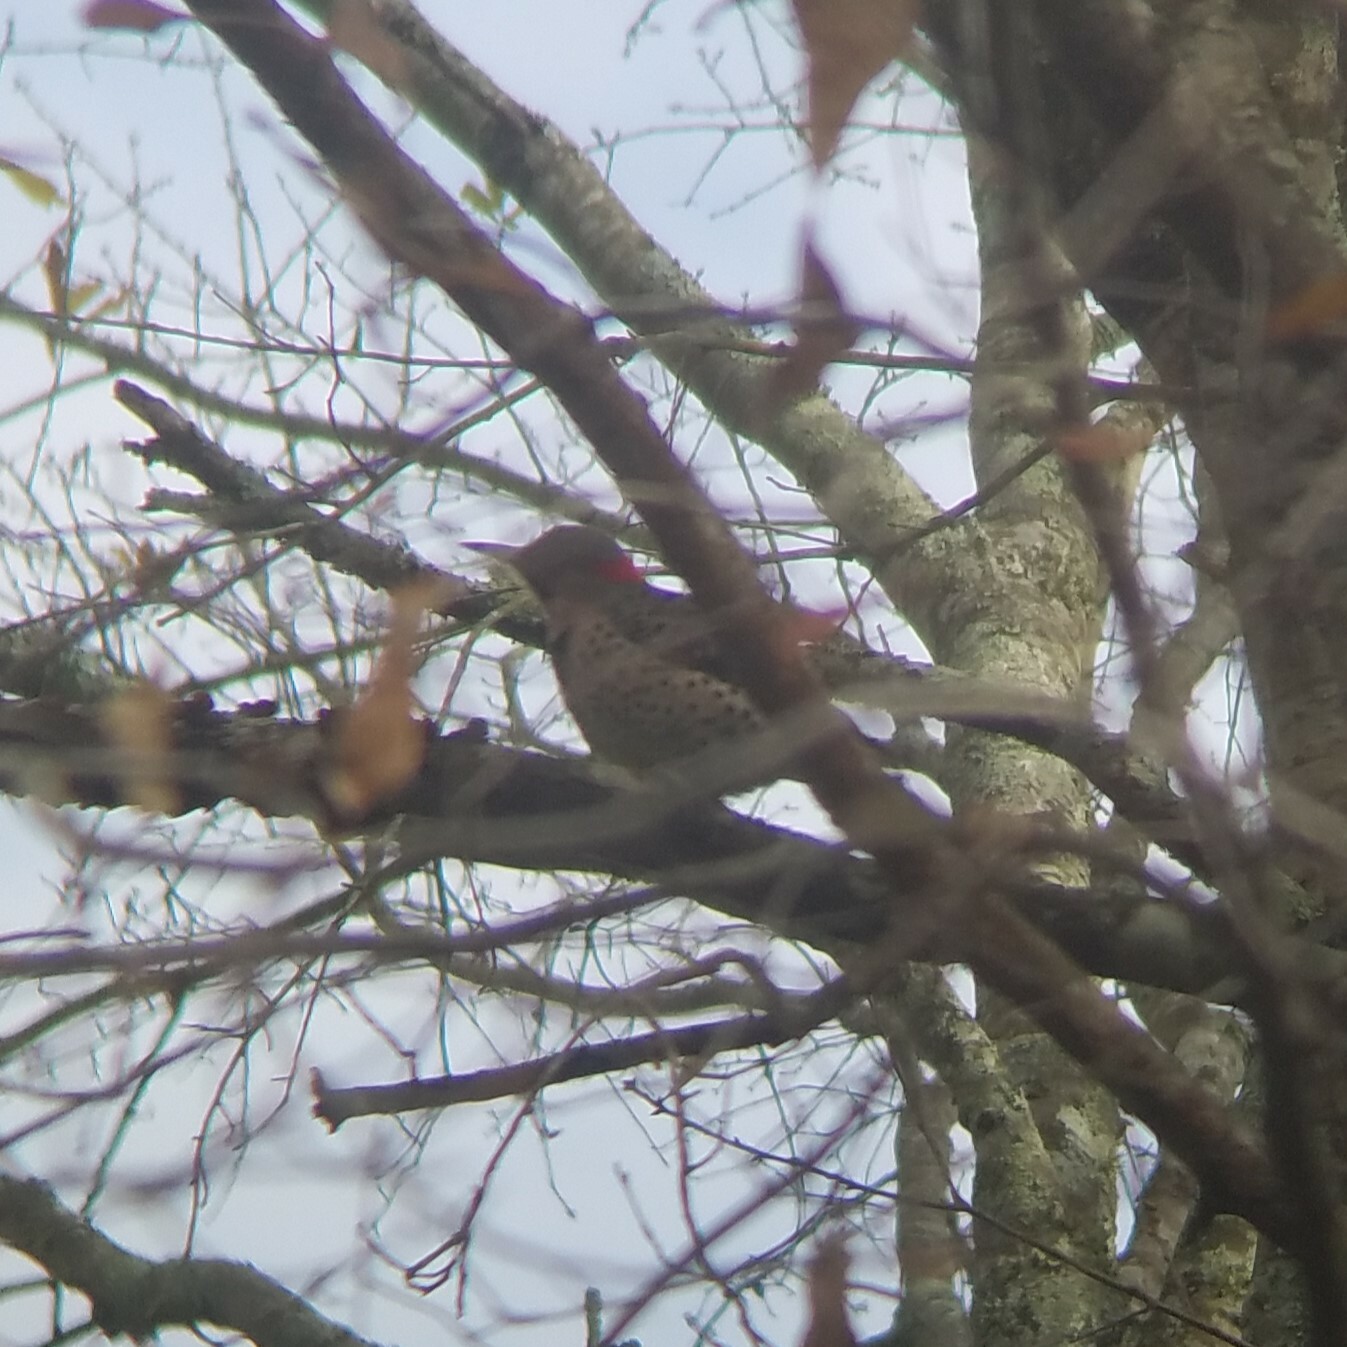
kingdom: Animalia
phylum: Chordata
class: Aves
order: Piciformes
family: Picidae
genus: Colaptes
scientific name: Colaptes auratus
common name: Northern flicker
